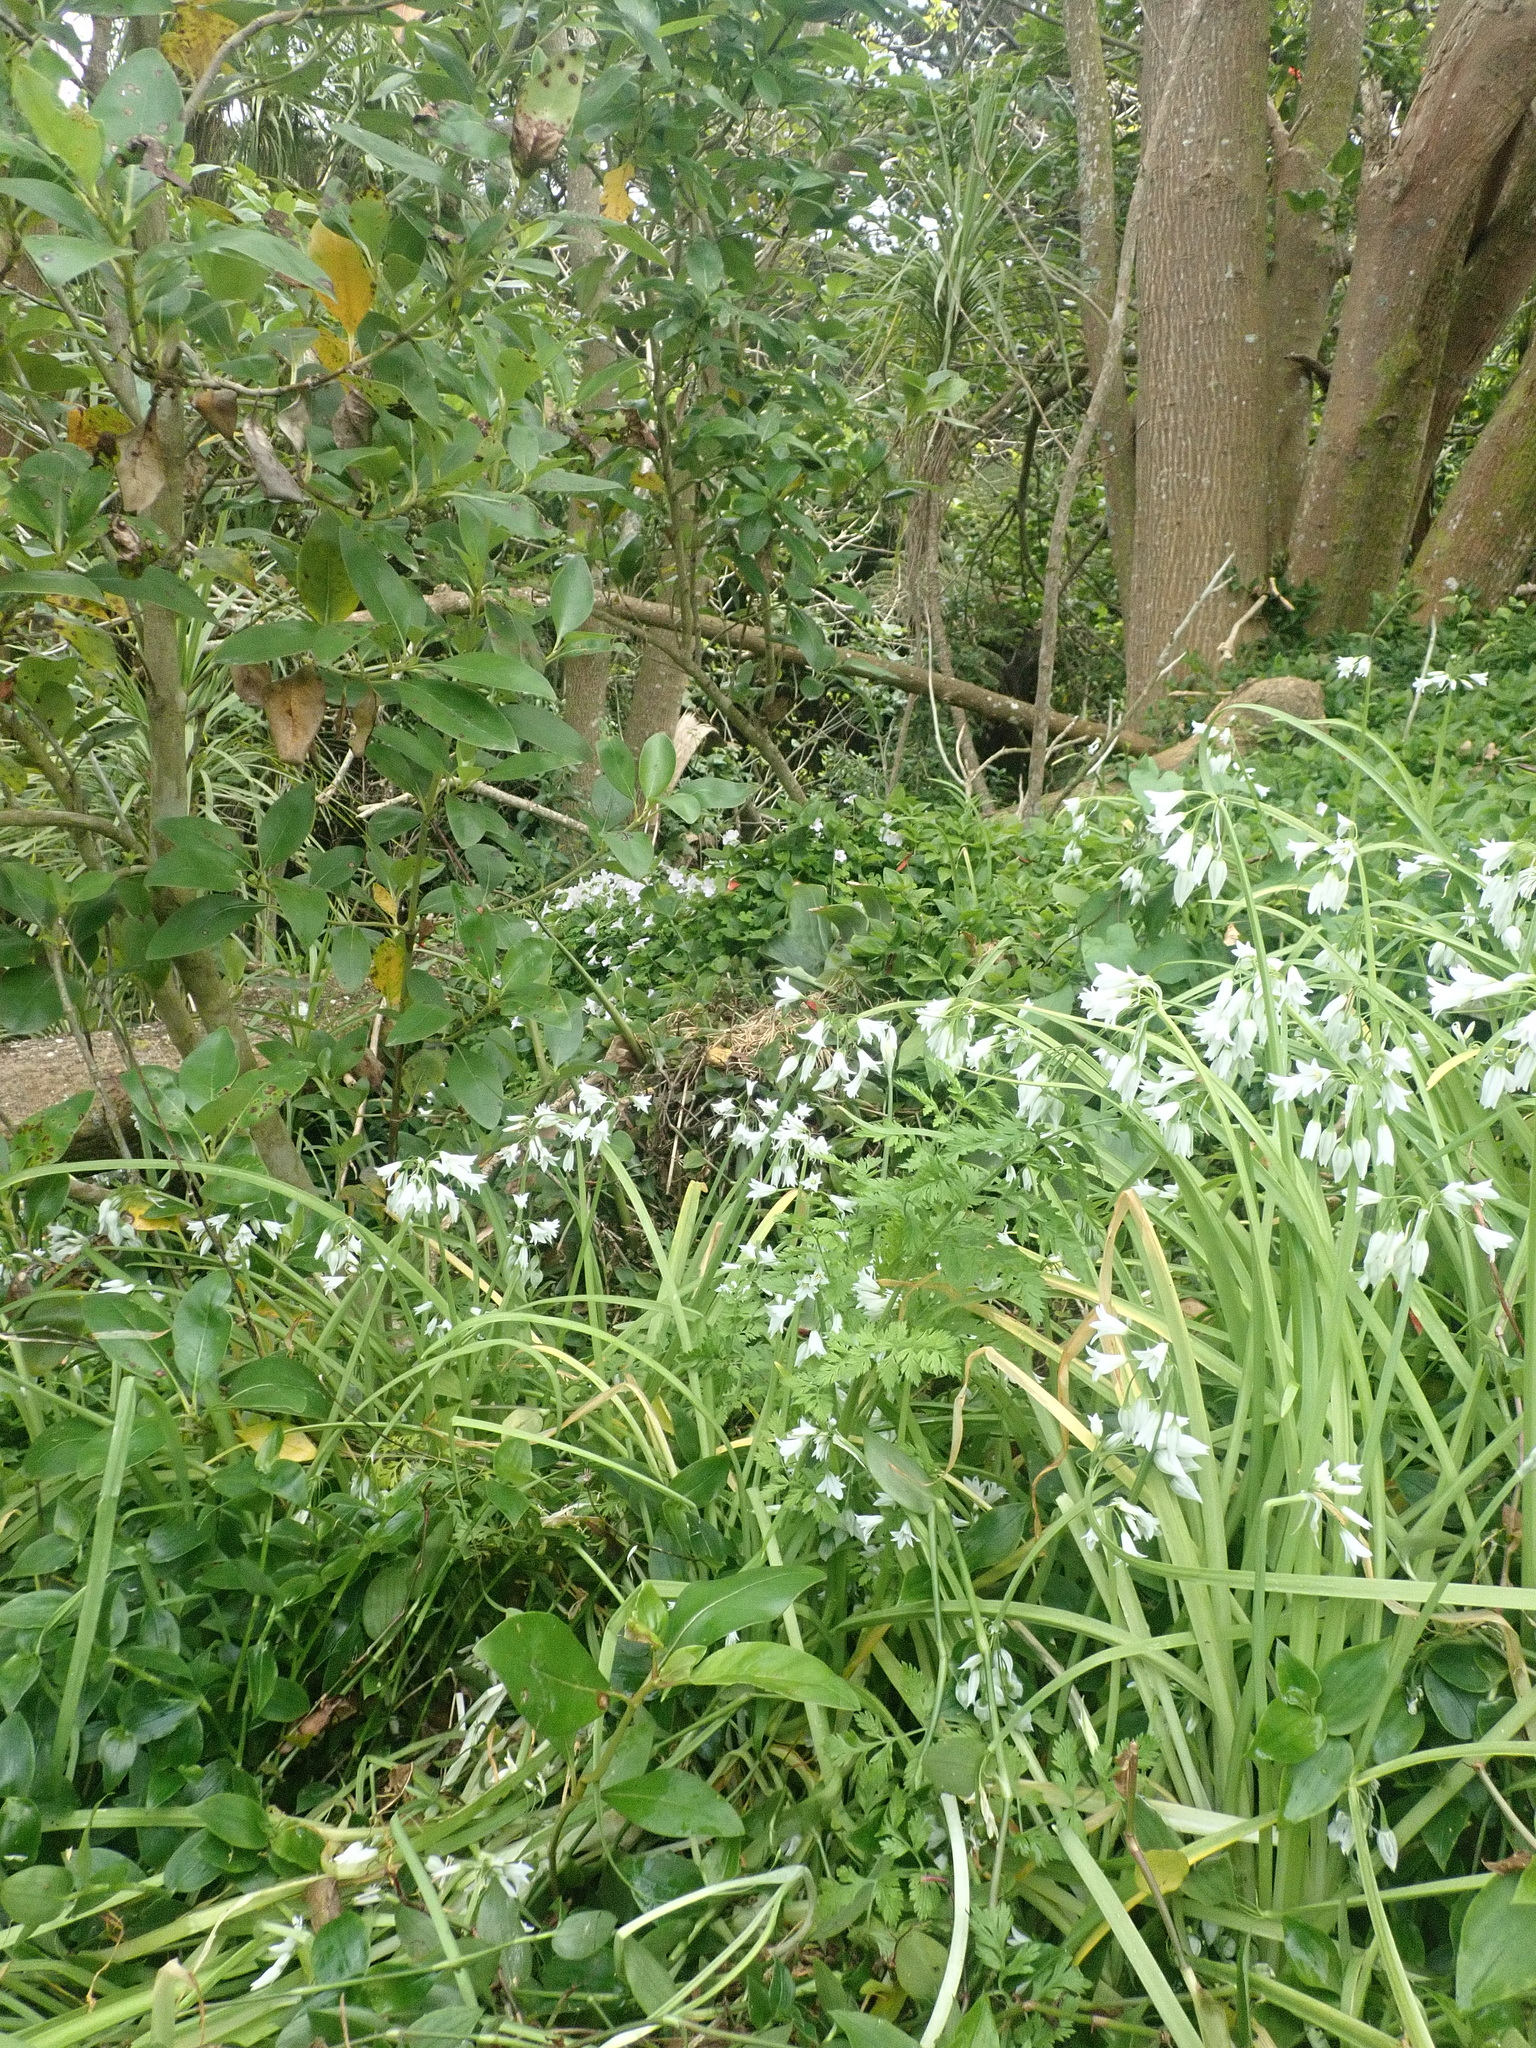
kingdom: Plantae
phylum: Tracheophyta
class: Liliopsida
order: Asparagales
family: Amaryllidaceae
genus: Allium
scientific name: Allium triquetrum
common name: Three-cornered garlic
